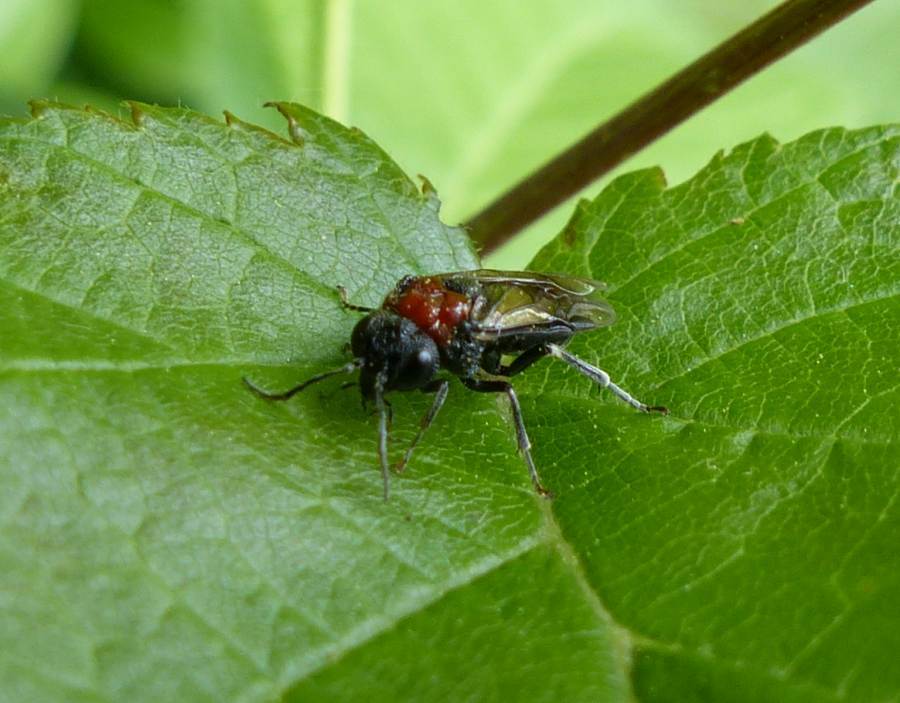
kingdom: Animalia
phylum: Arthropoda
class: Insecta
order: Hymenoptera
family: Tenthredinidae
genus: Eriocampa
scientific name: Eriocampa ovata
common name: Alder wooly sawfly
